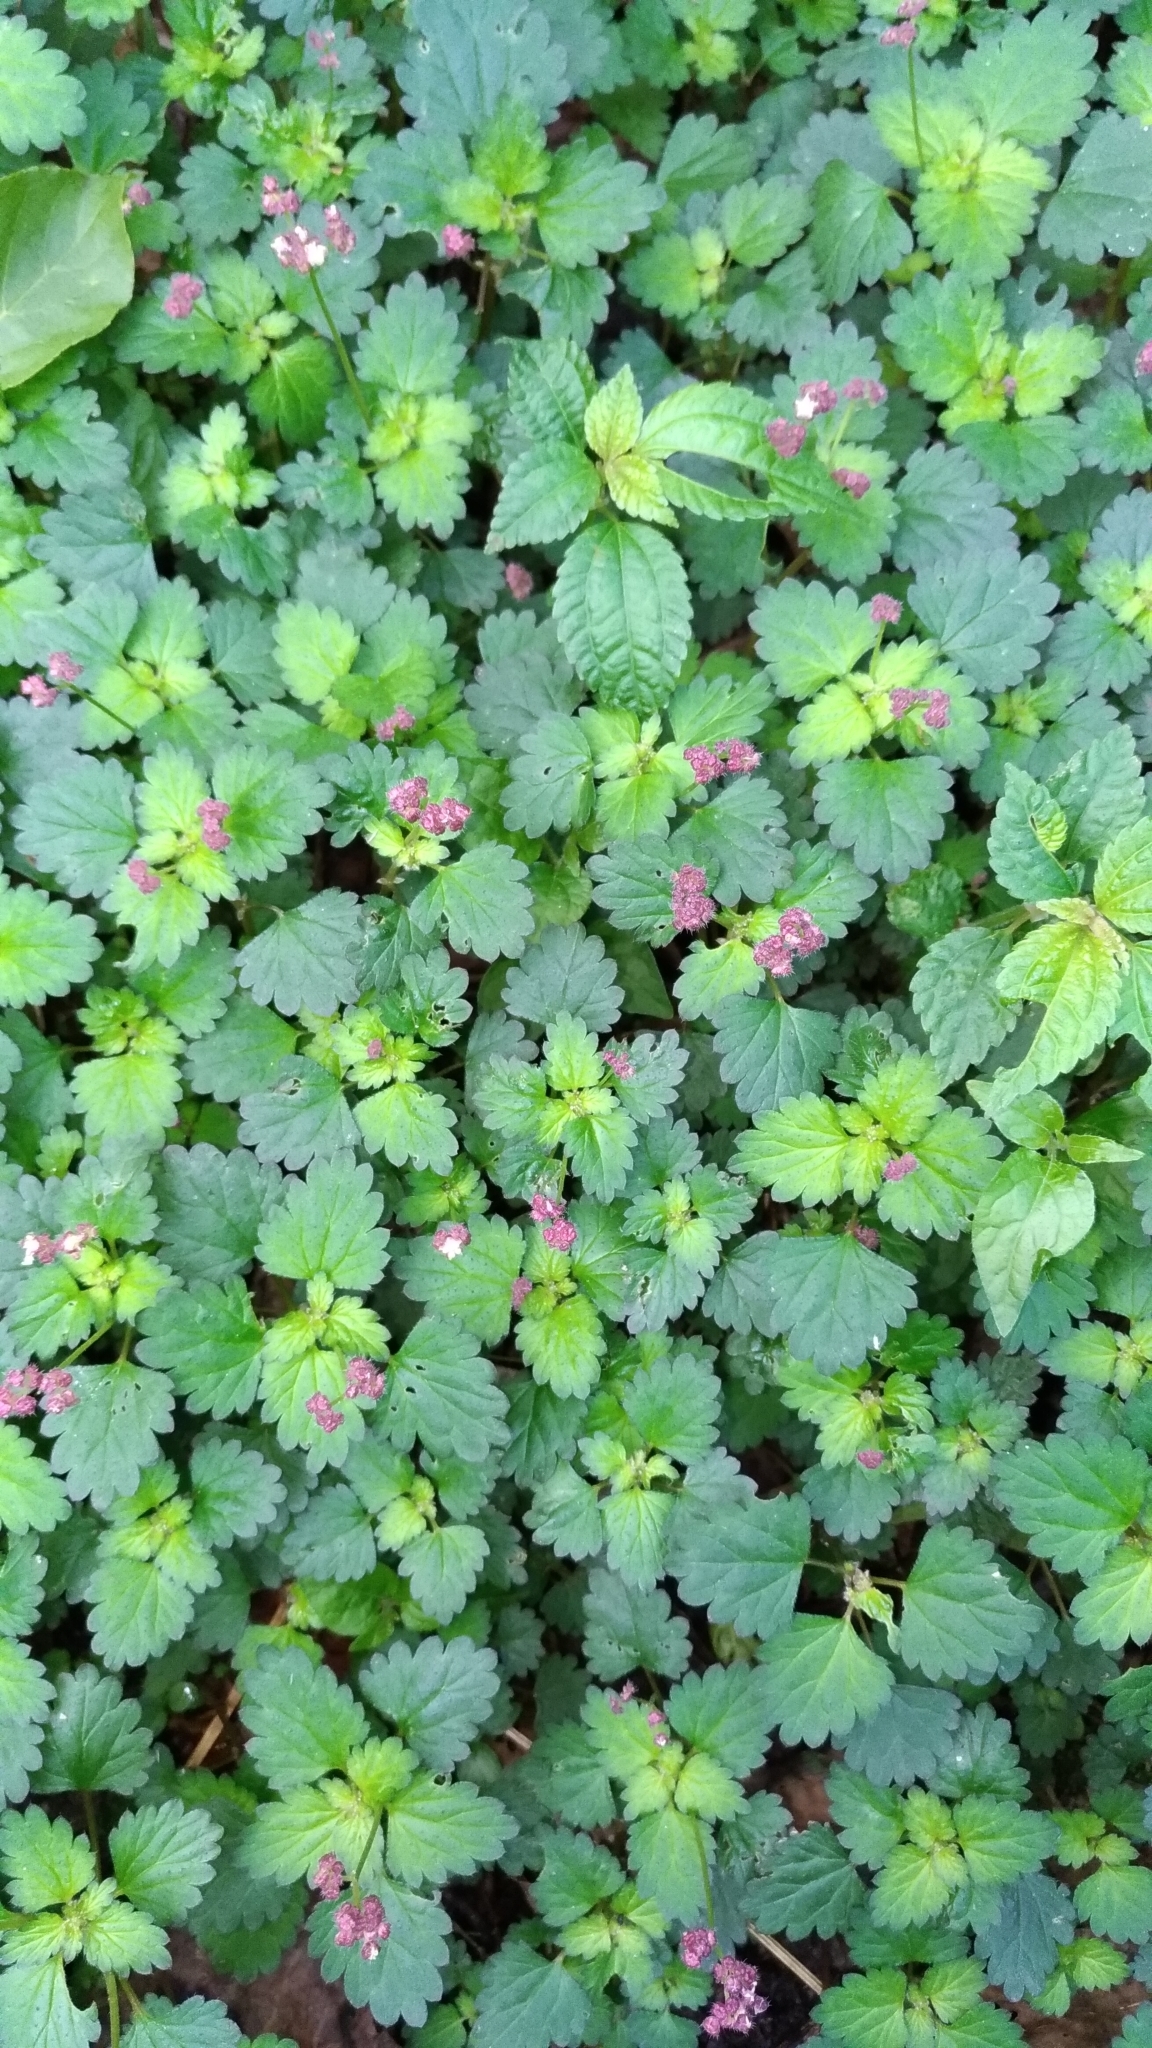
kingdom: Plantae
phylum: Tracheophyta
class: Magnoliopsida
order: Rosales
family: Urticaceae
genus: Nanocnide
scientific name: Nanocnide japonica
